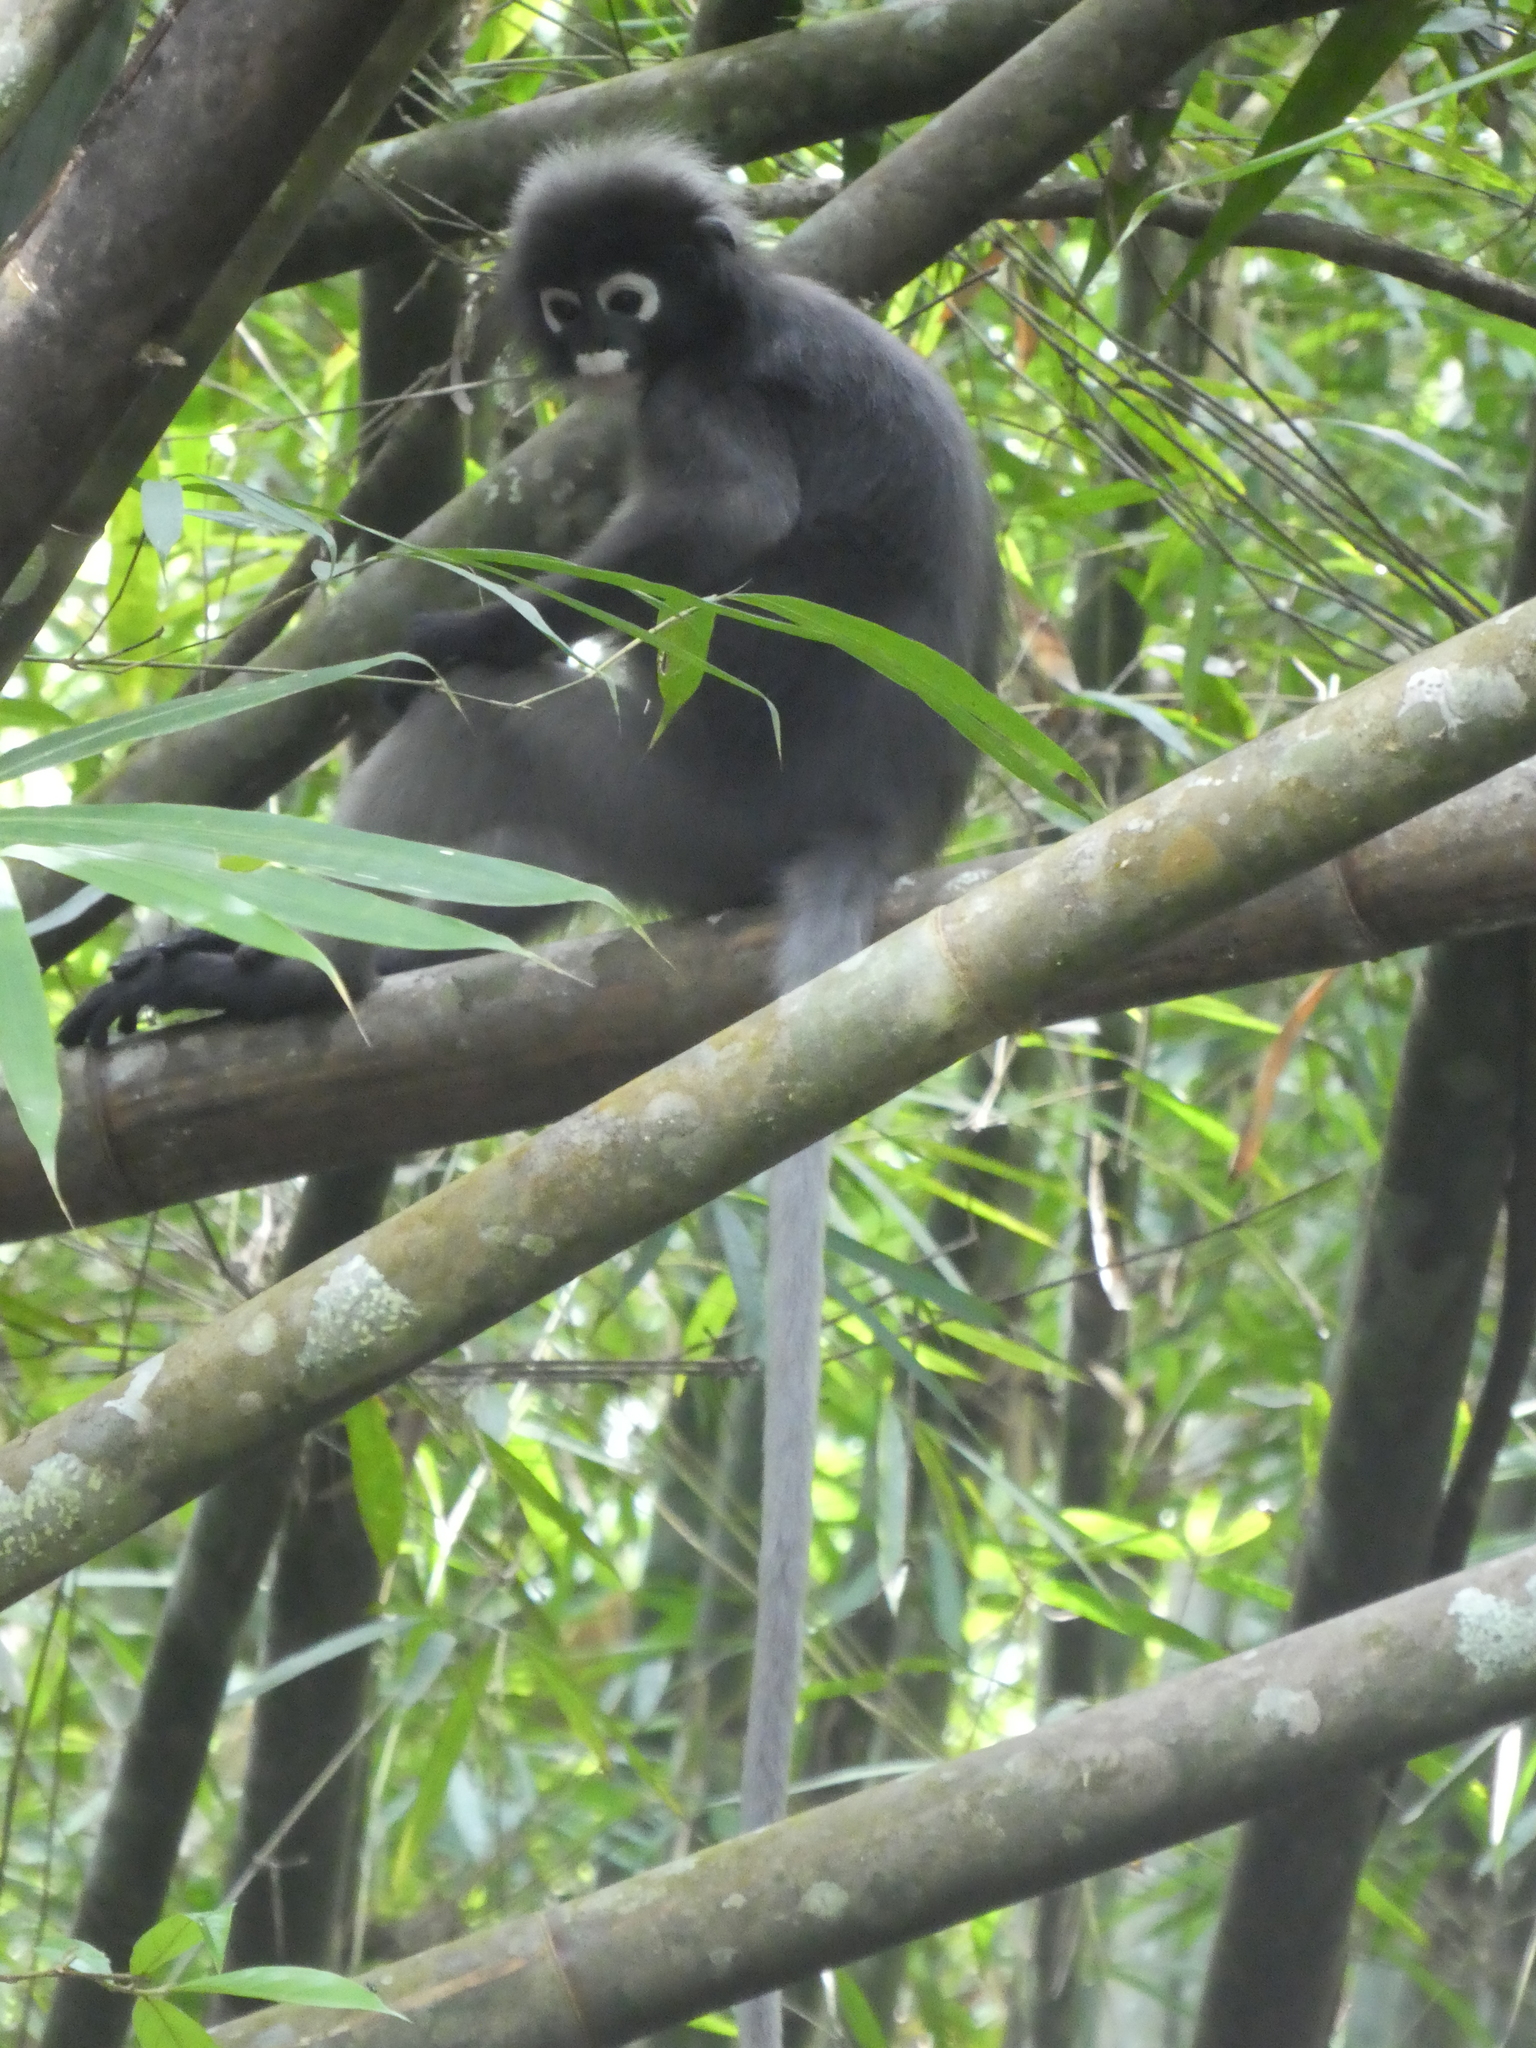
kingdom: Animalia
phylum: Chordata
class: Mammalia
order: Primates
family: Cercopithecidae
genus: Trachypithecus
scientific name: Trachypithecus obscurus
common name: Dusky leaf-monkey
